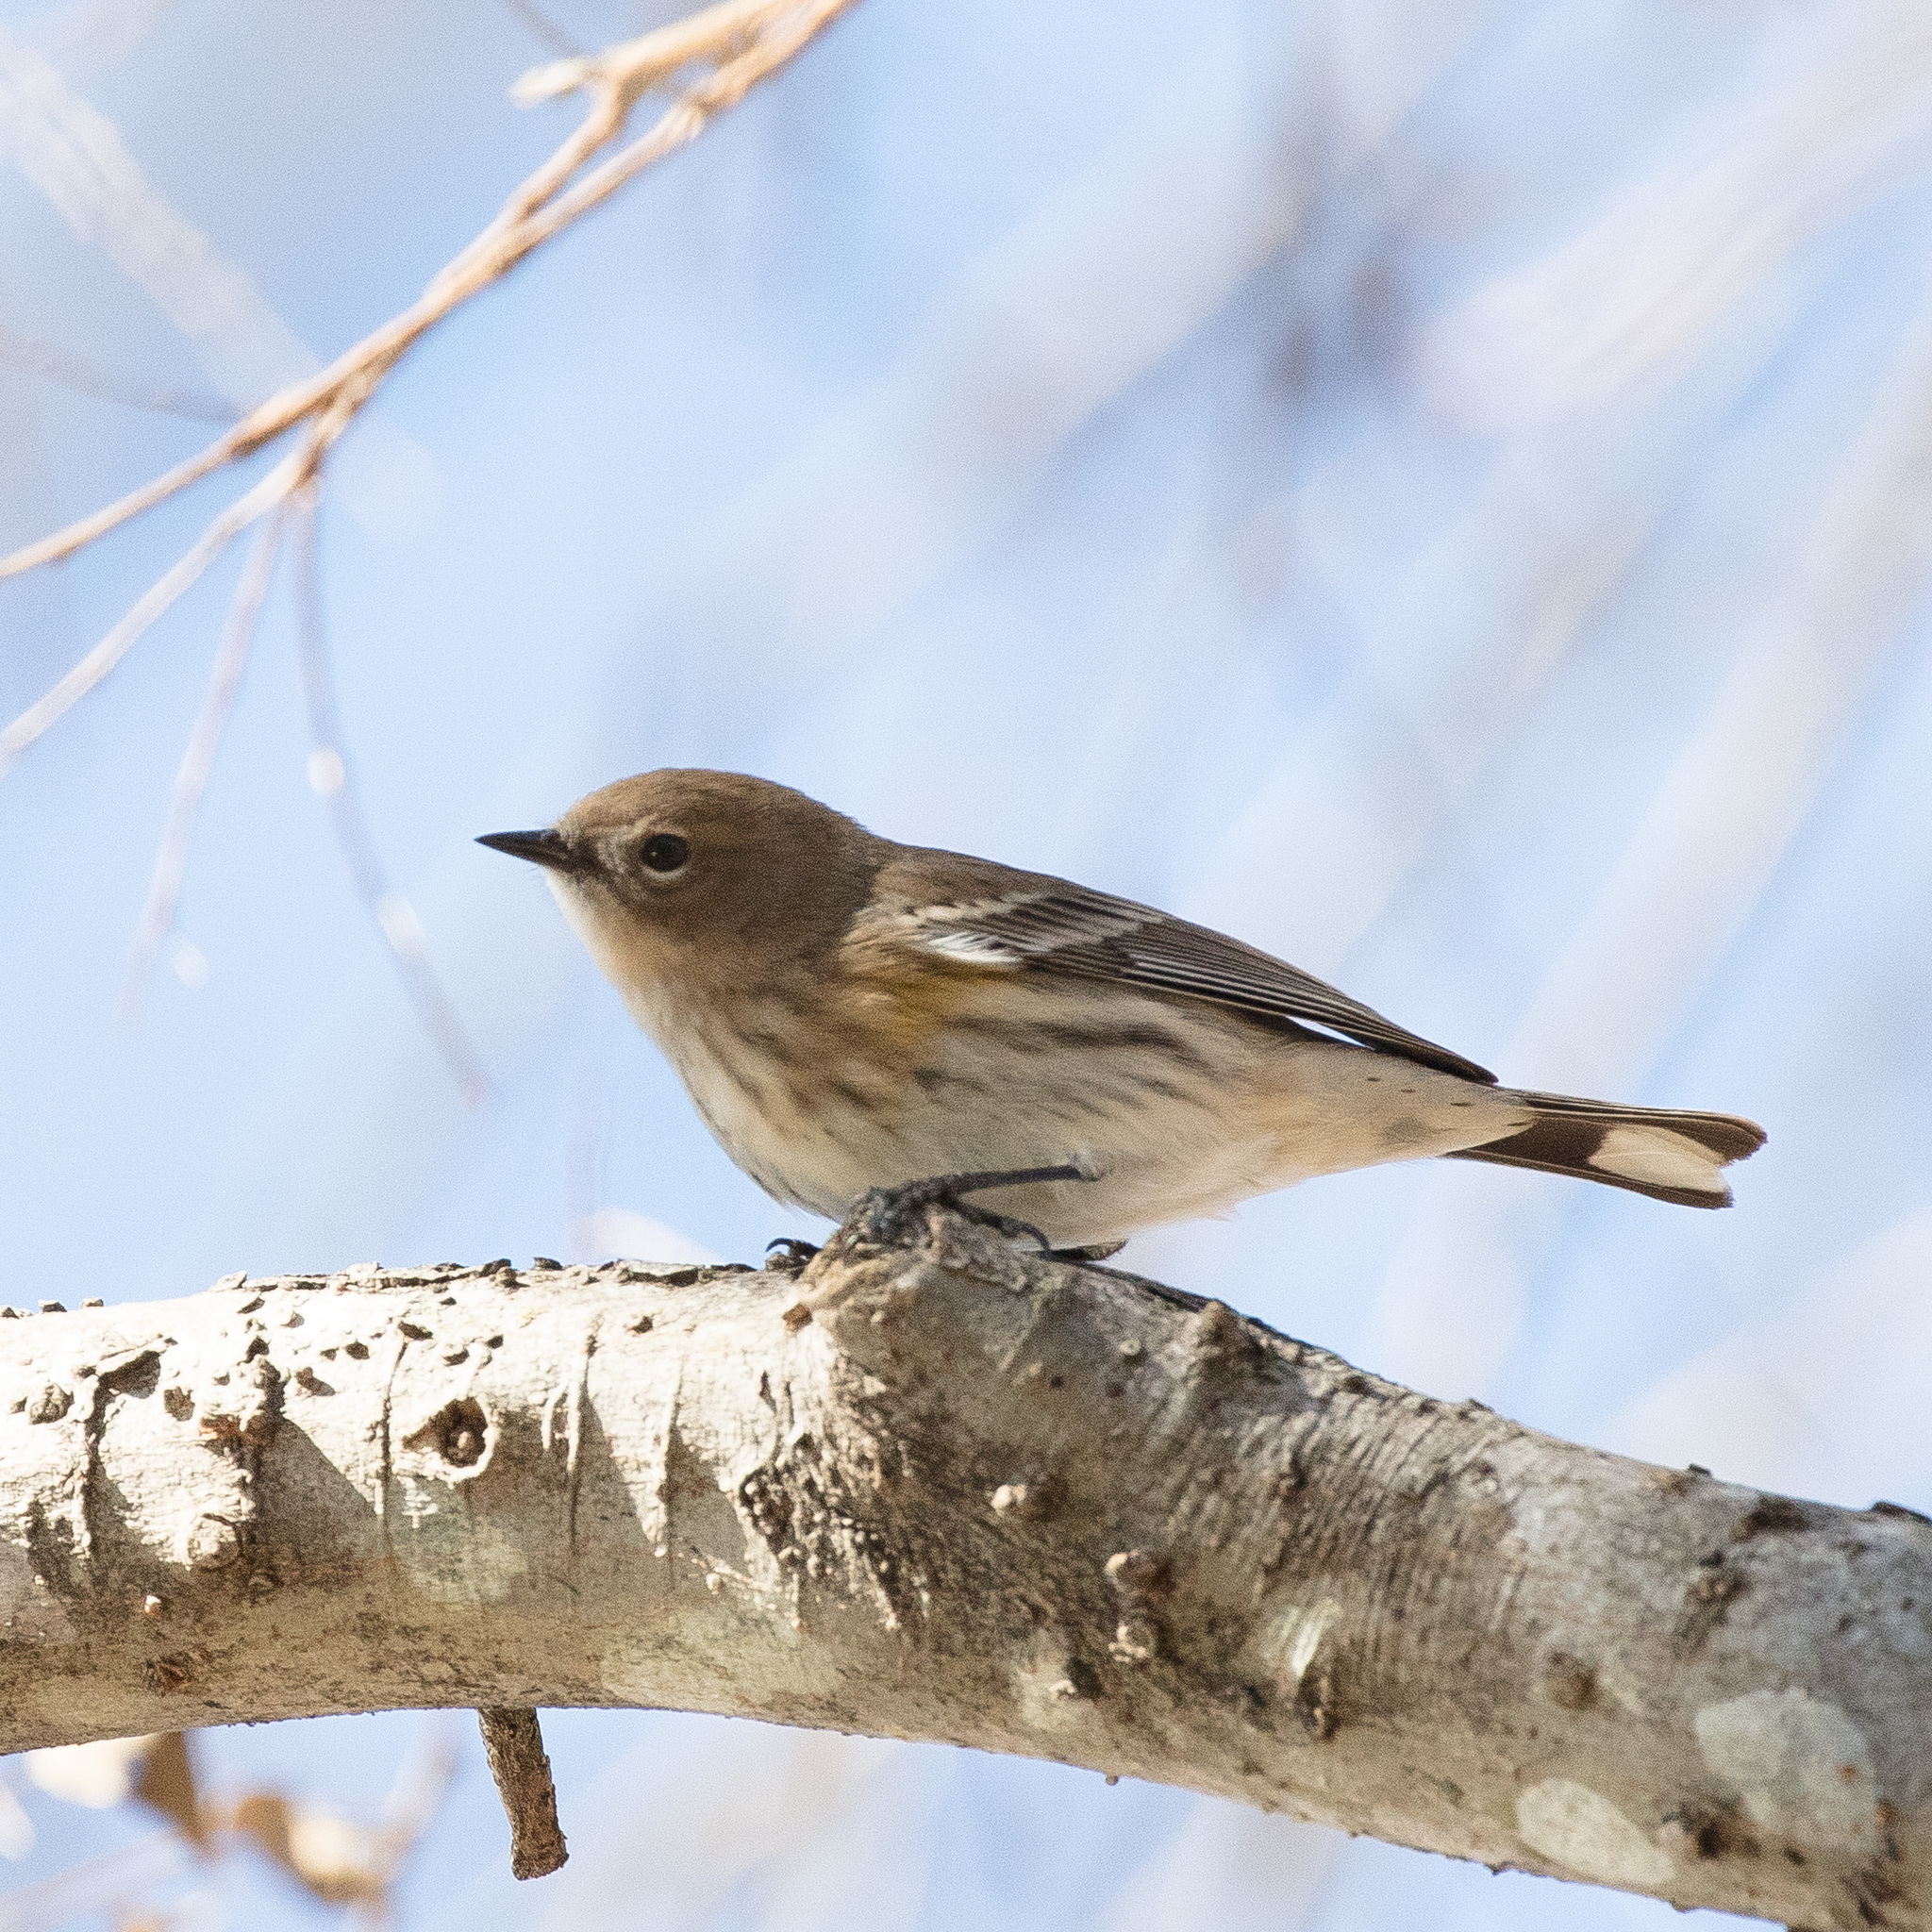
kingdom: Animalia
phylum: Chordata
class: Aves
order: Passeriformes
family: Parulidae
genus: Setophaga
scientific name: Setophaga coronata
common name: Myrtle warbler
